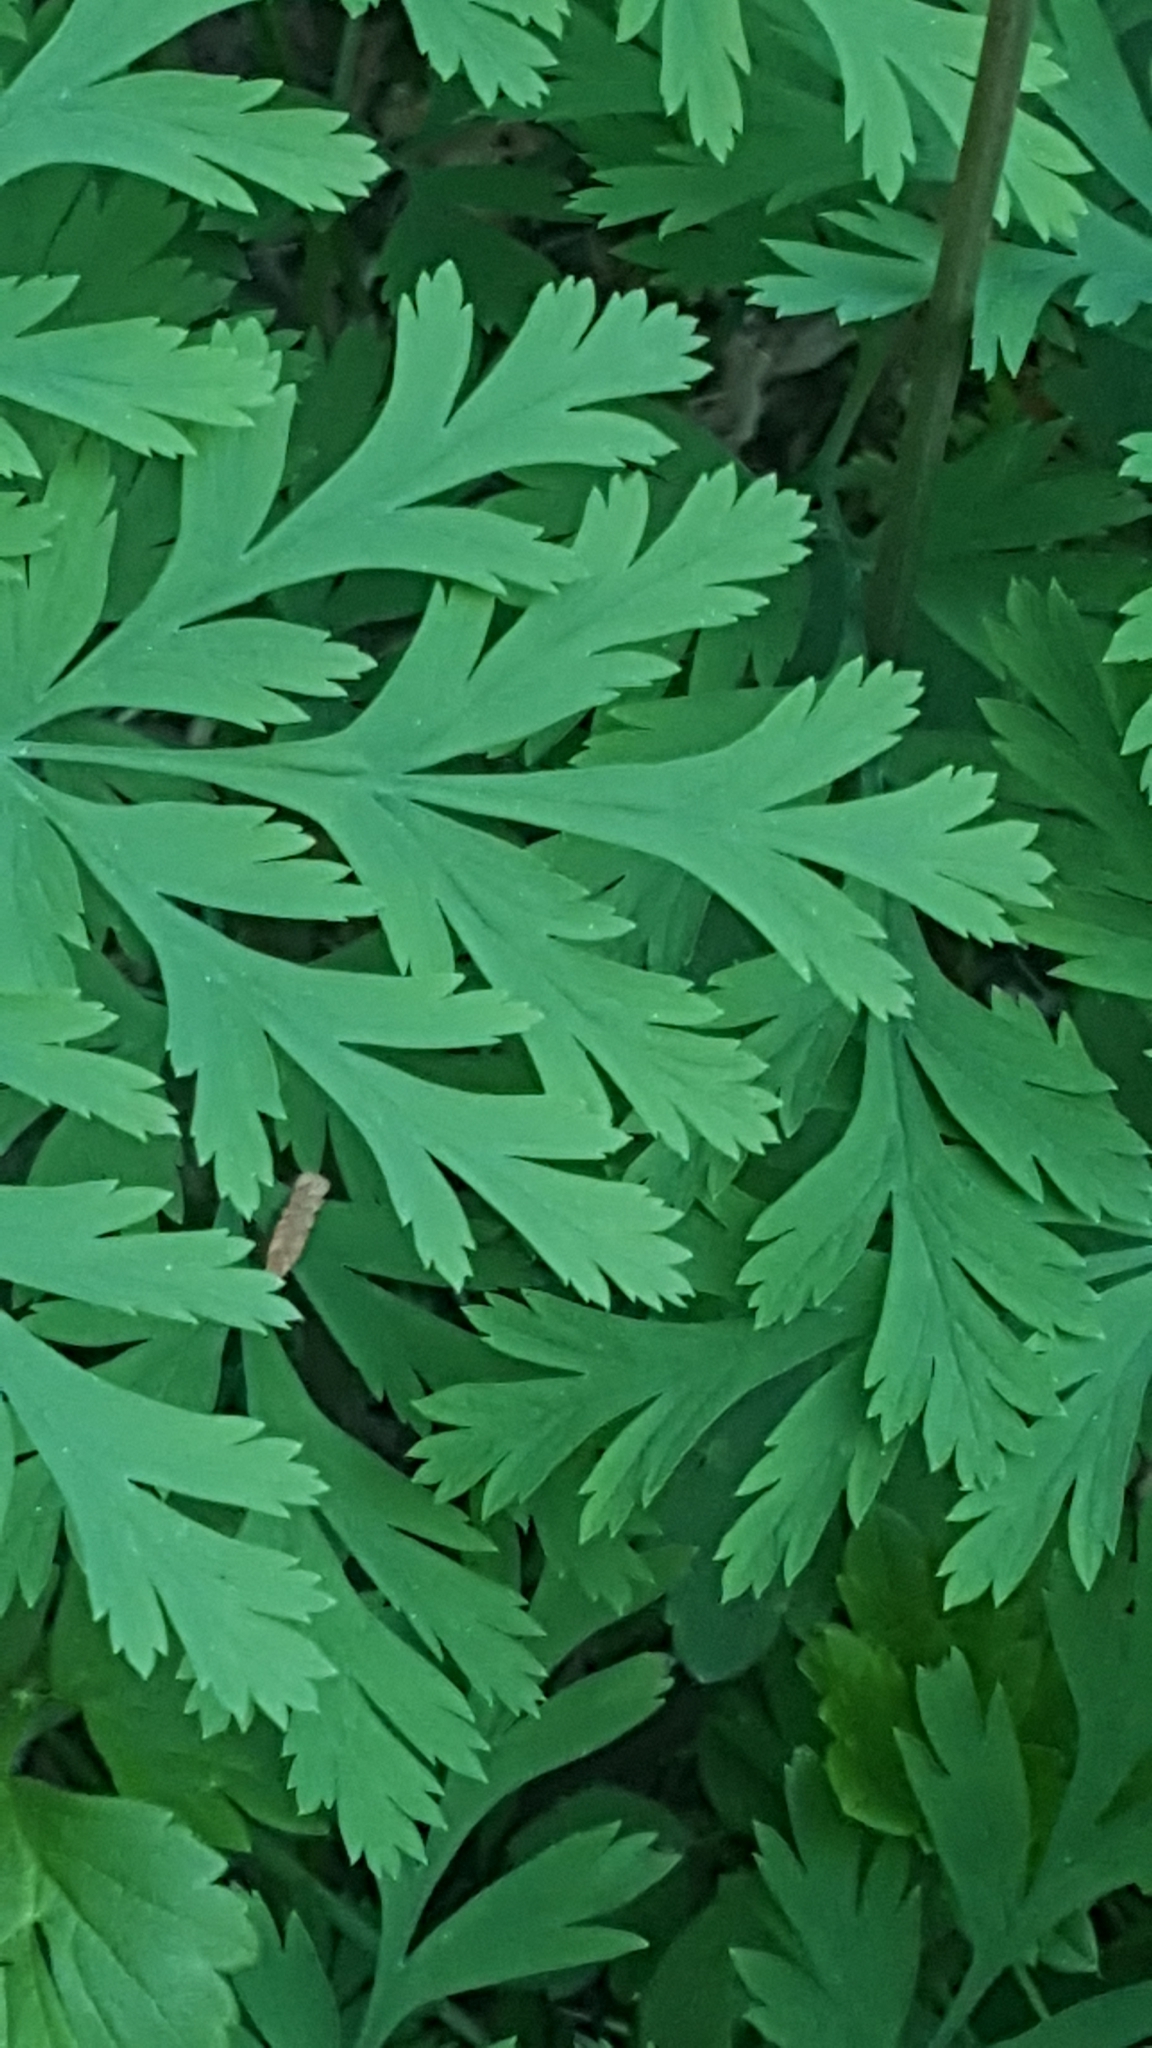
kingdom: Plantae
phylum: Tracheophyta
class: Magnoliopsida
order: Ranunculales
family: Papaveraceae
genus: Dicentra
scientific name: Dicentra formosa
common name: Bleeding-heart
